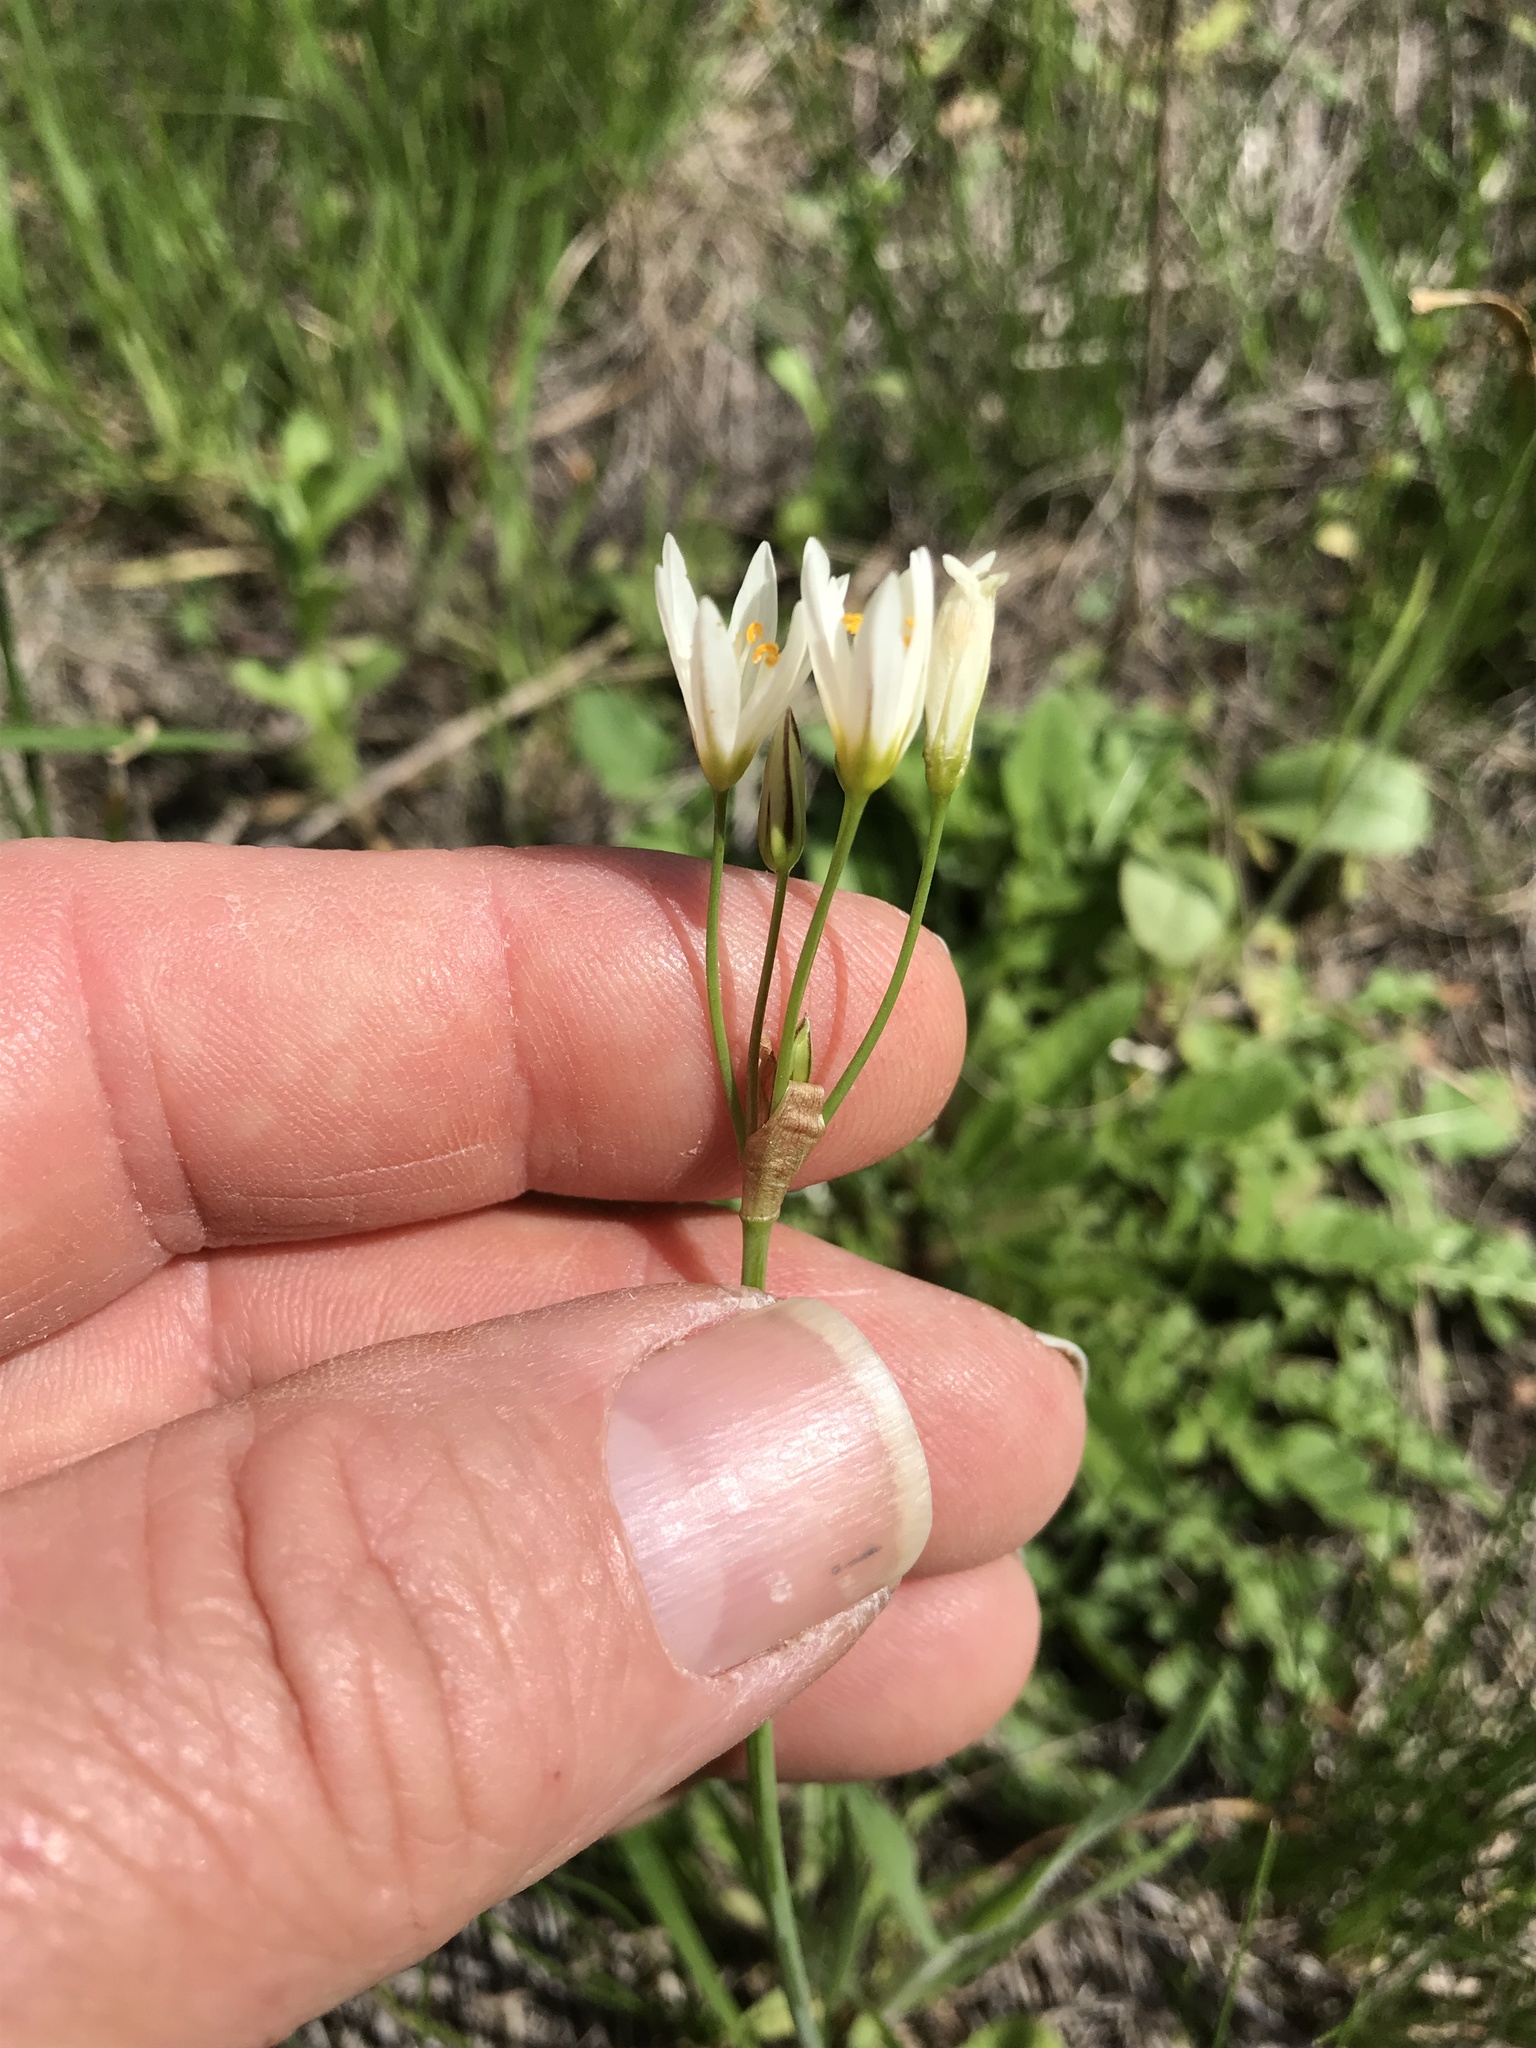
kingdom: Plantae
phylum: Tracheophyta
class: Liliopsida
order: Asparagales
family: Amaryllidaceae
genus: Nothoscordum
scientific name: Nothoscordum bivalve
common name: Crow-poison
